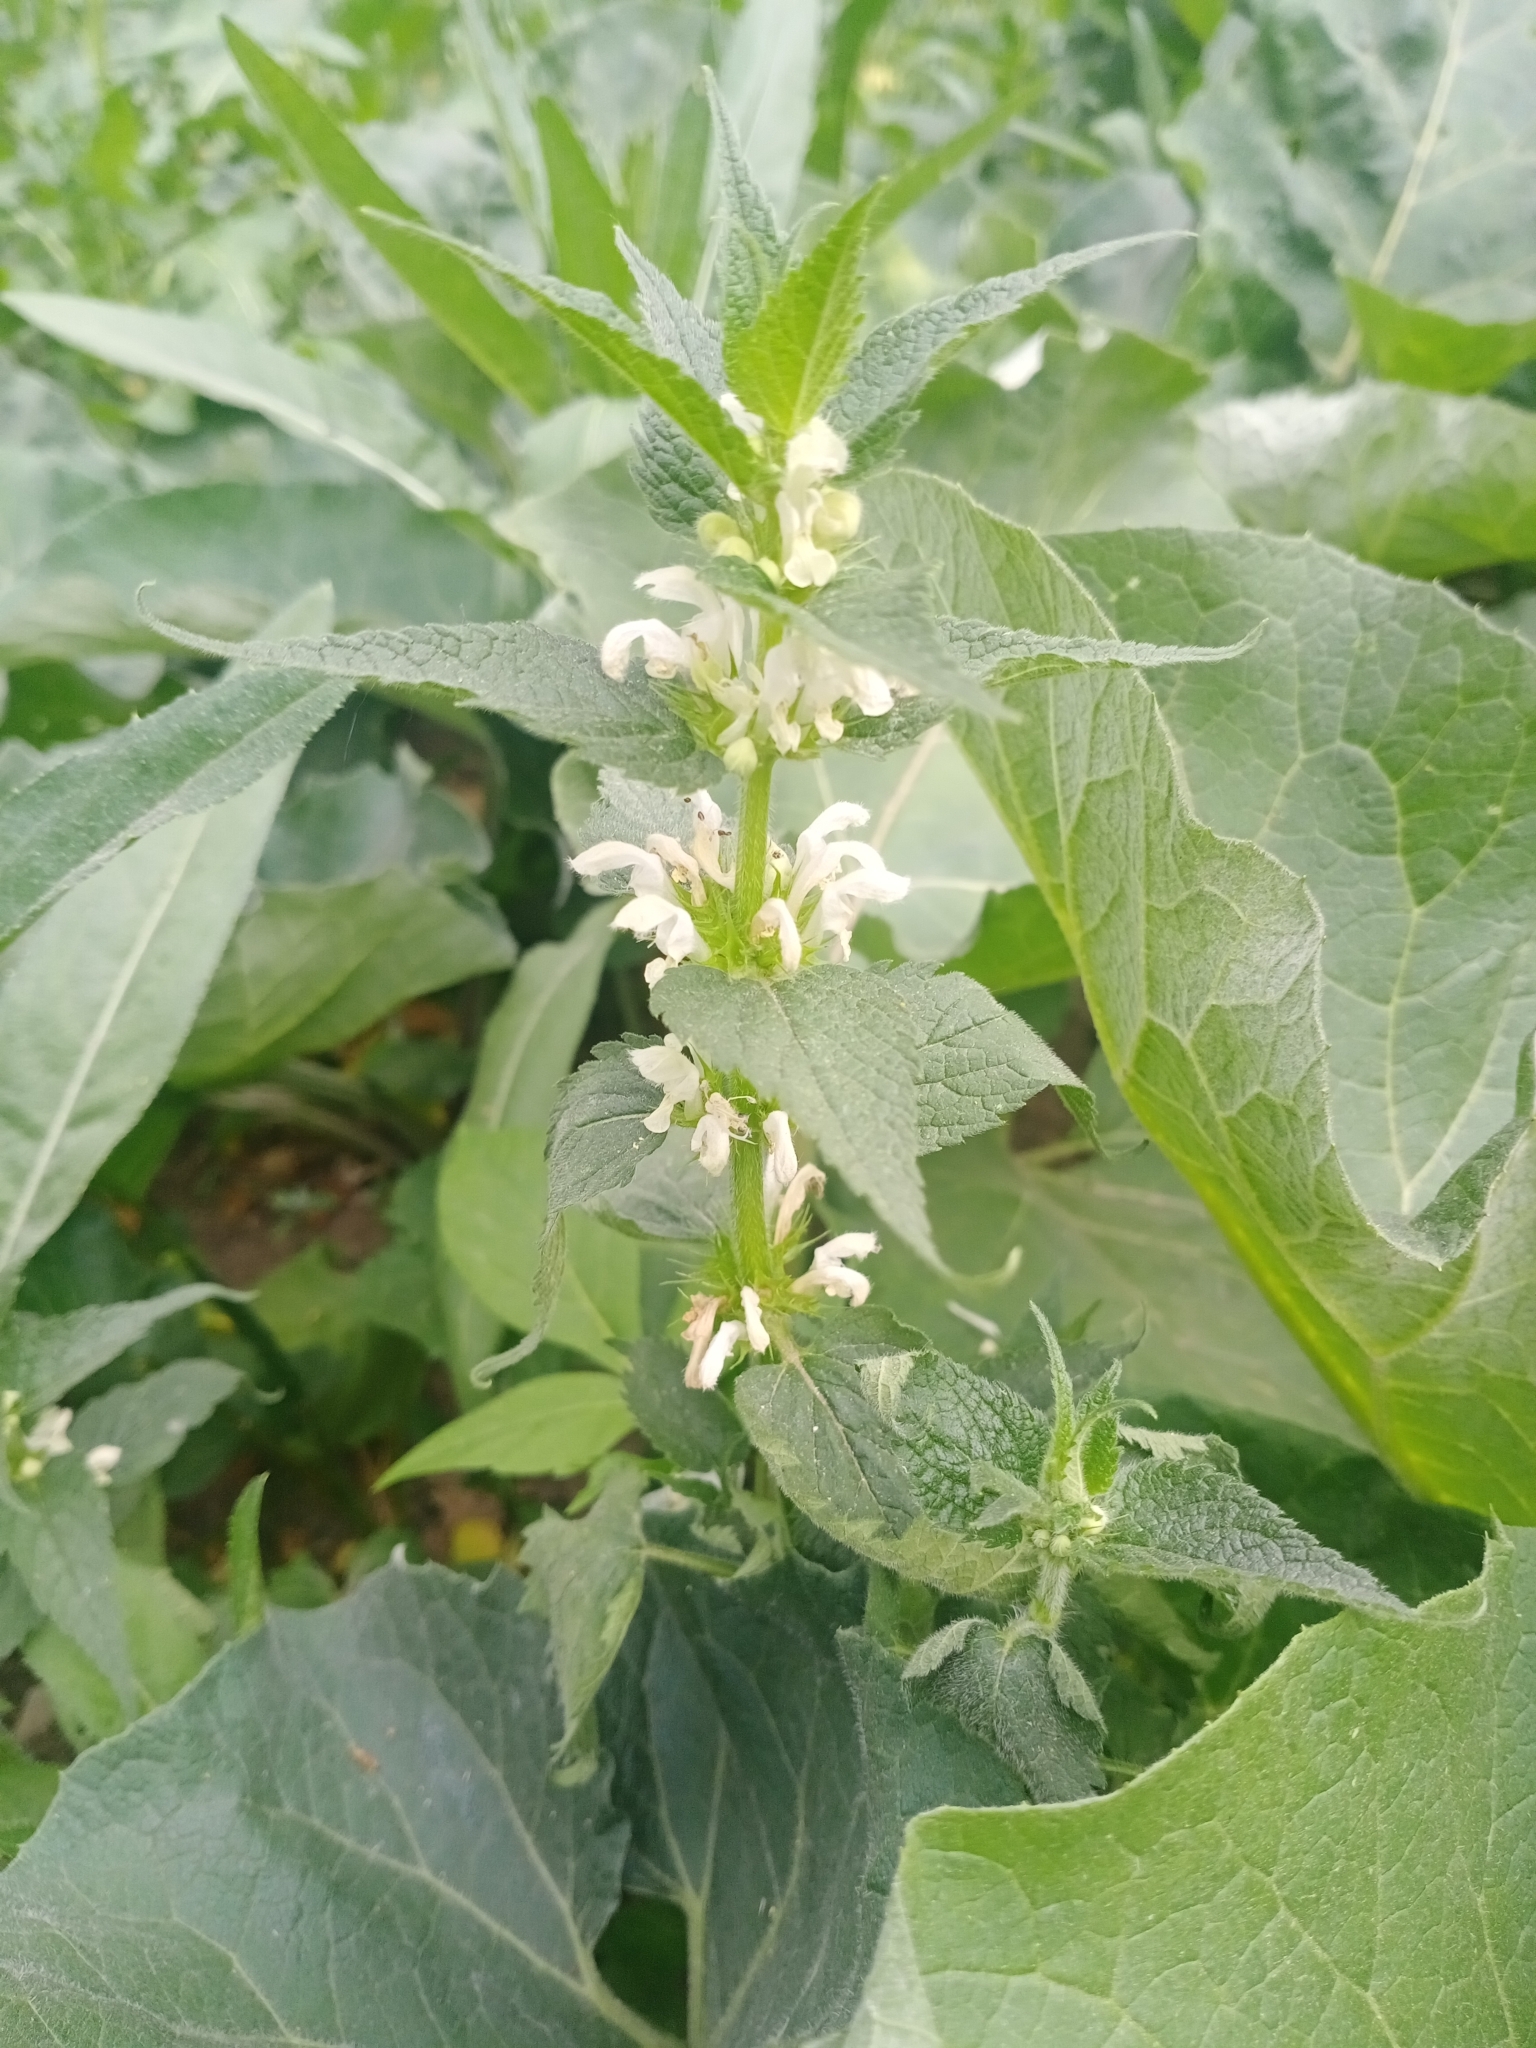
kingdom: Plantae
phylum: Tracheophyta
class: Magnoliopsida
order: Lamiales
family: Lamiaceae
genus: Lamium
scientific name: Lamium album
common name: White dead-nettle
